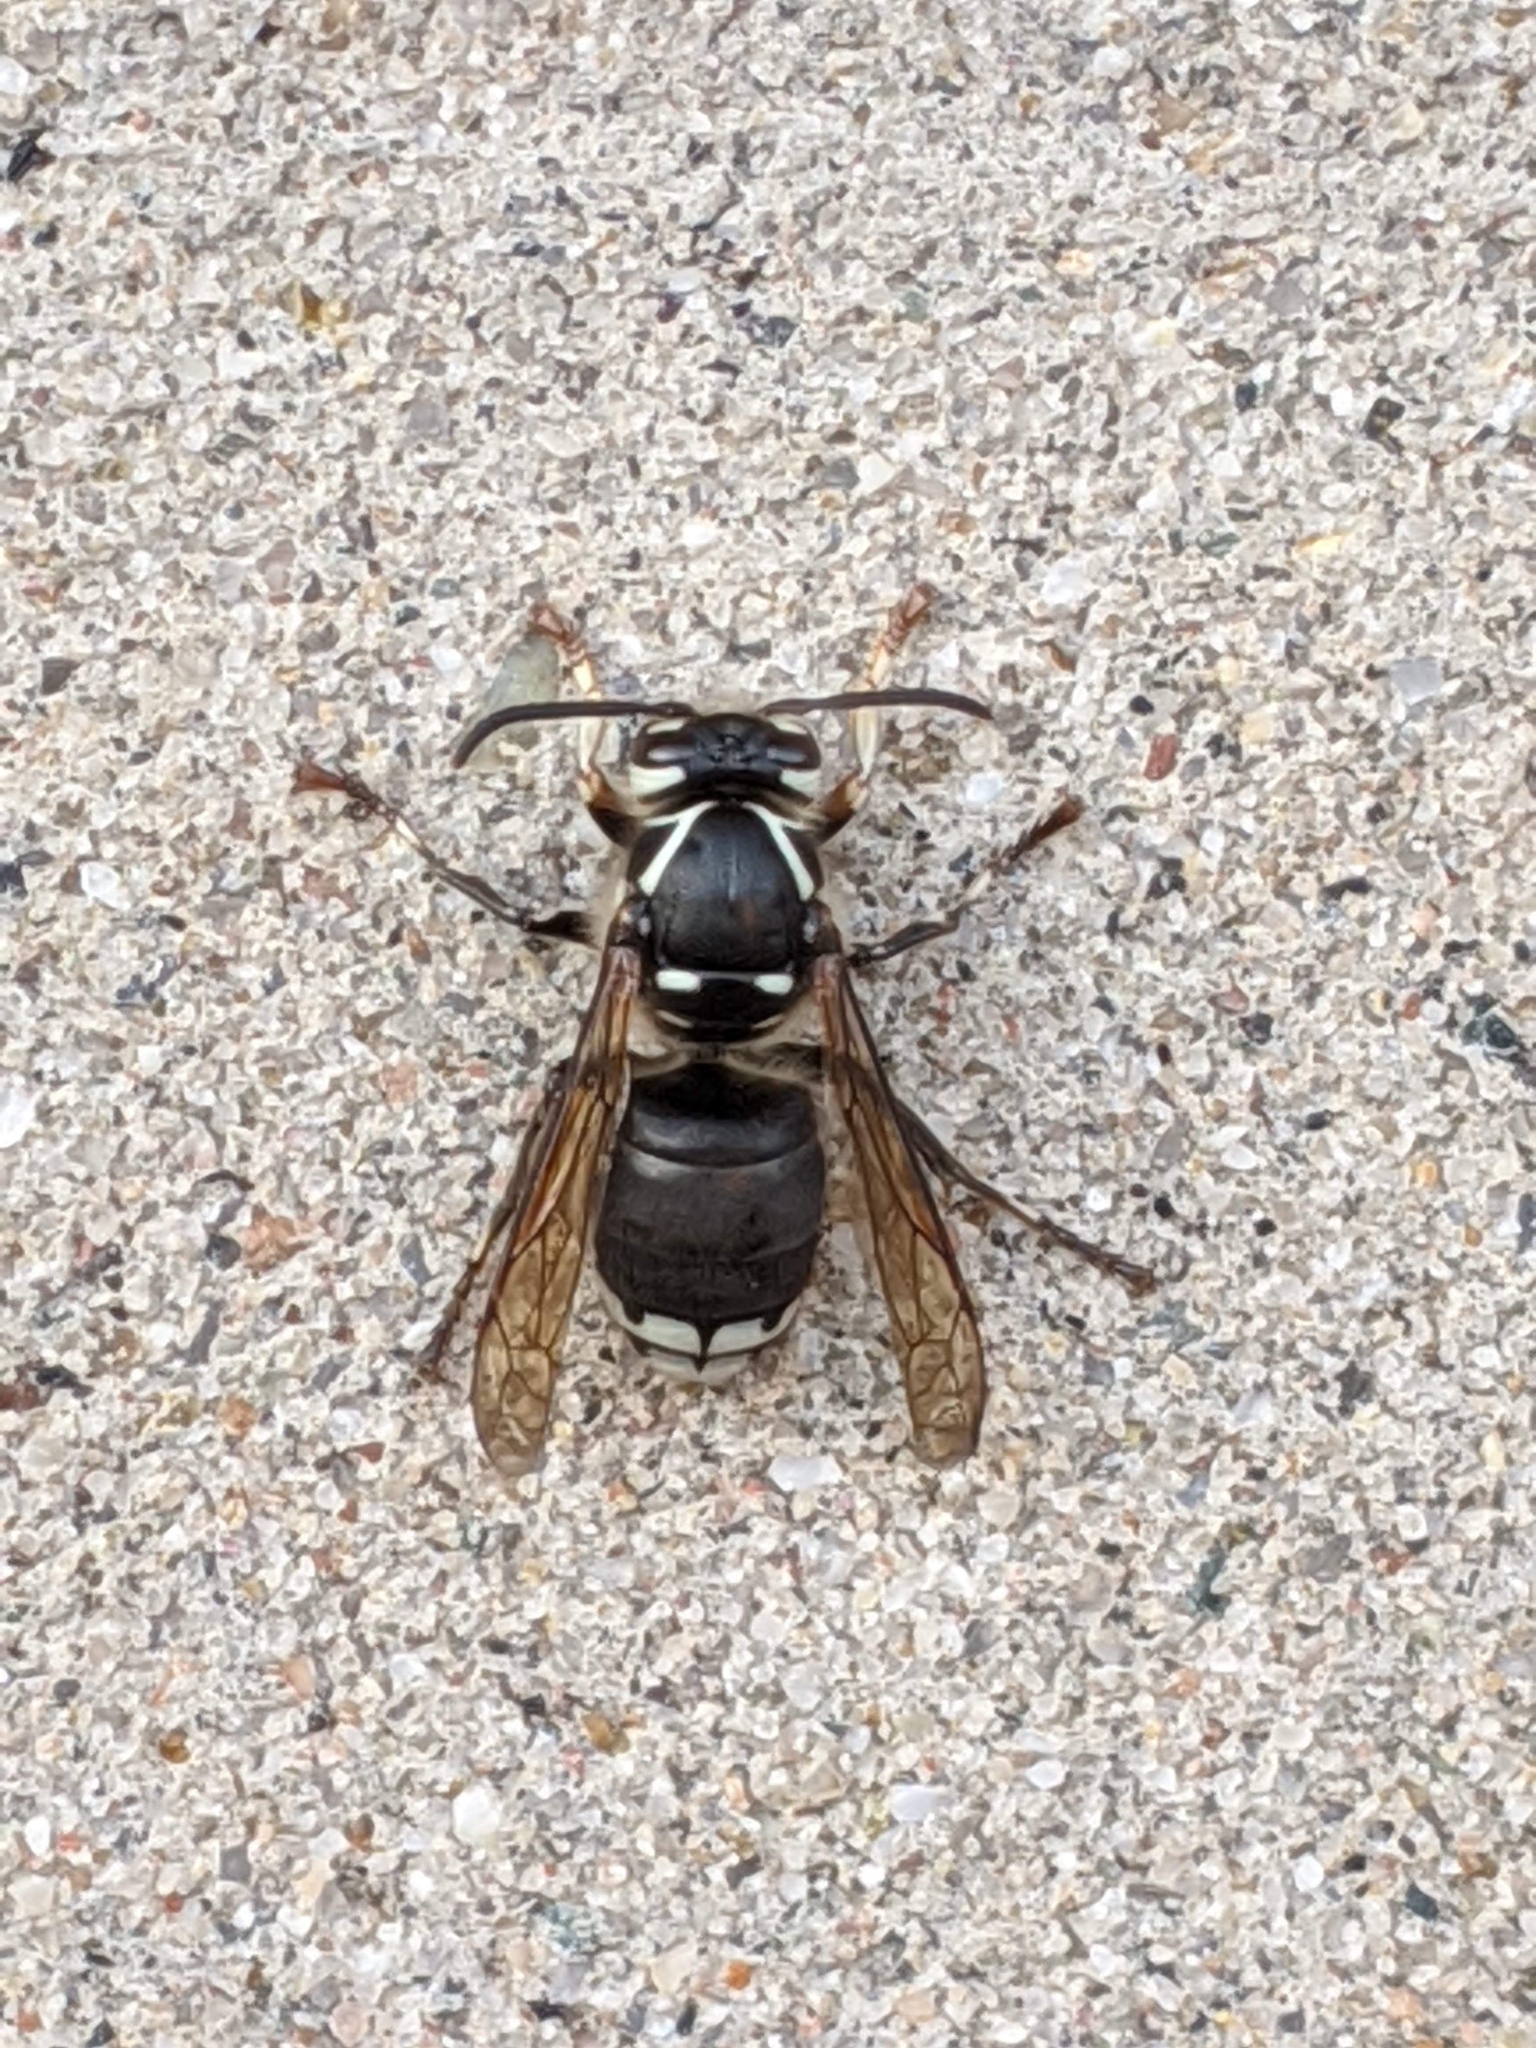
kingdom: Animalia
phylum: Arthropoda
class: Insecta
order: Hymenoptera
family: Vespidae
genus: Dolichovespula
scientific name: Dolichovespula maculata
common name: Bald-faced hornet
